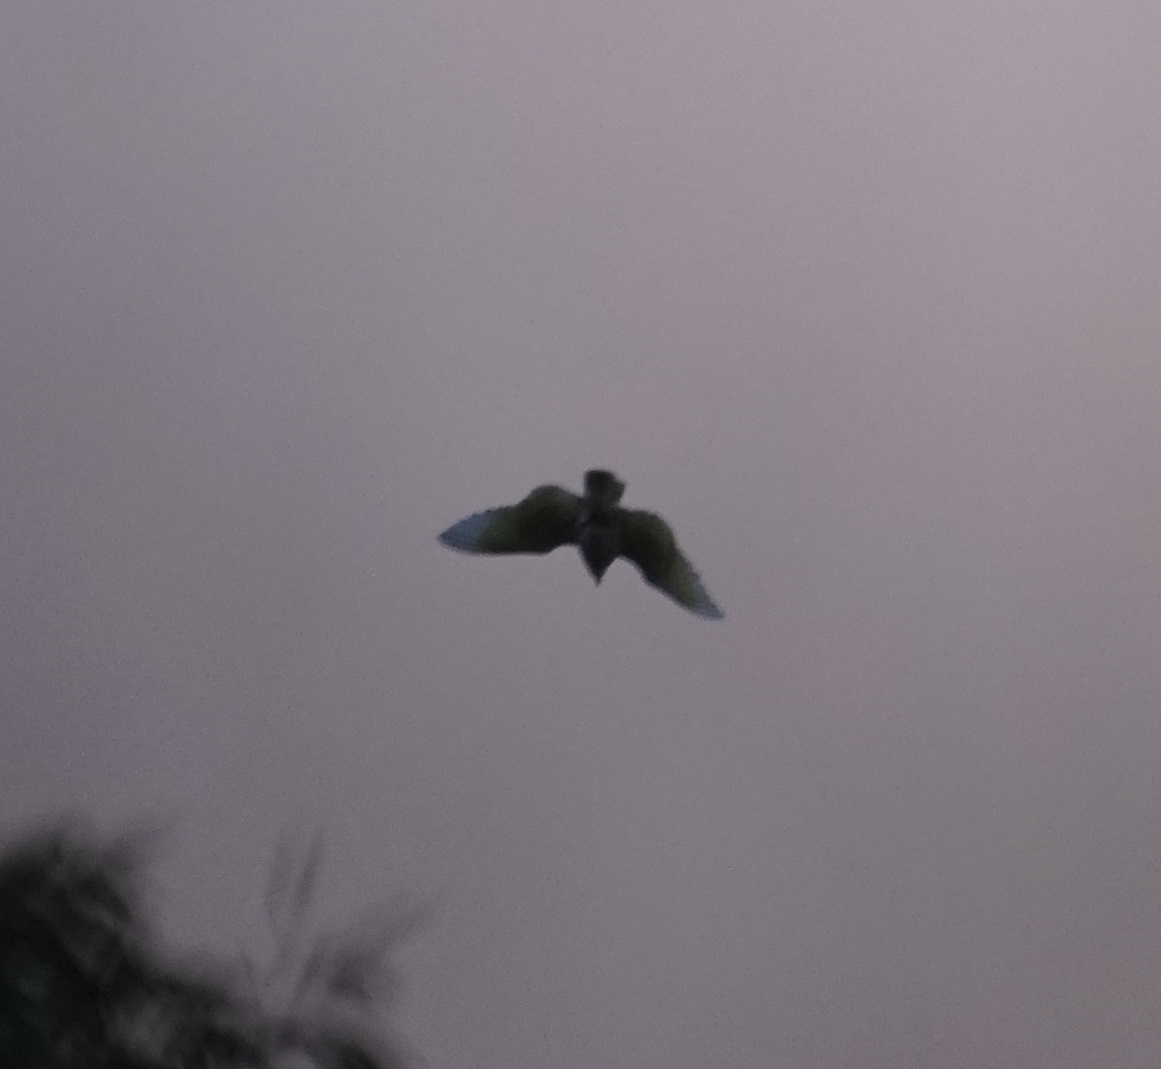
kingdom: Animalia
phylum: Chordata
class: Aves
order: Psittaciformes
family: Psittacidae
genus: Cacatua
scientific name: Cacatua galerita
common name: Sulphur-crested cockatoo
